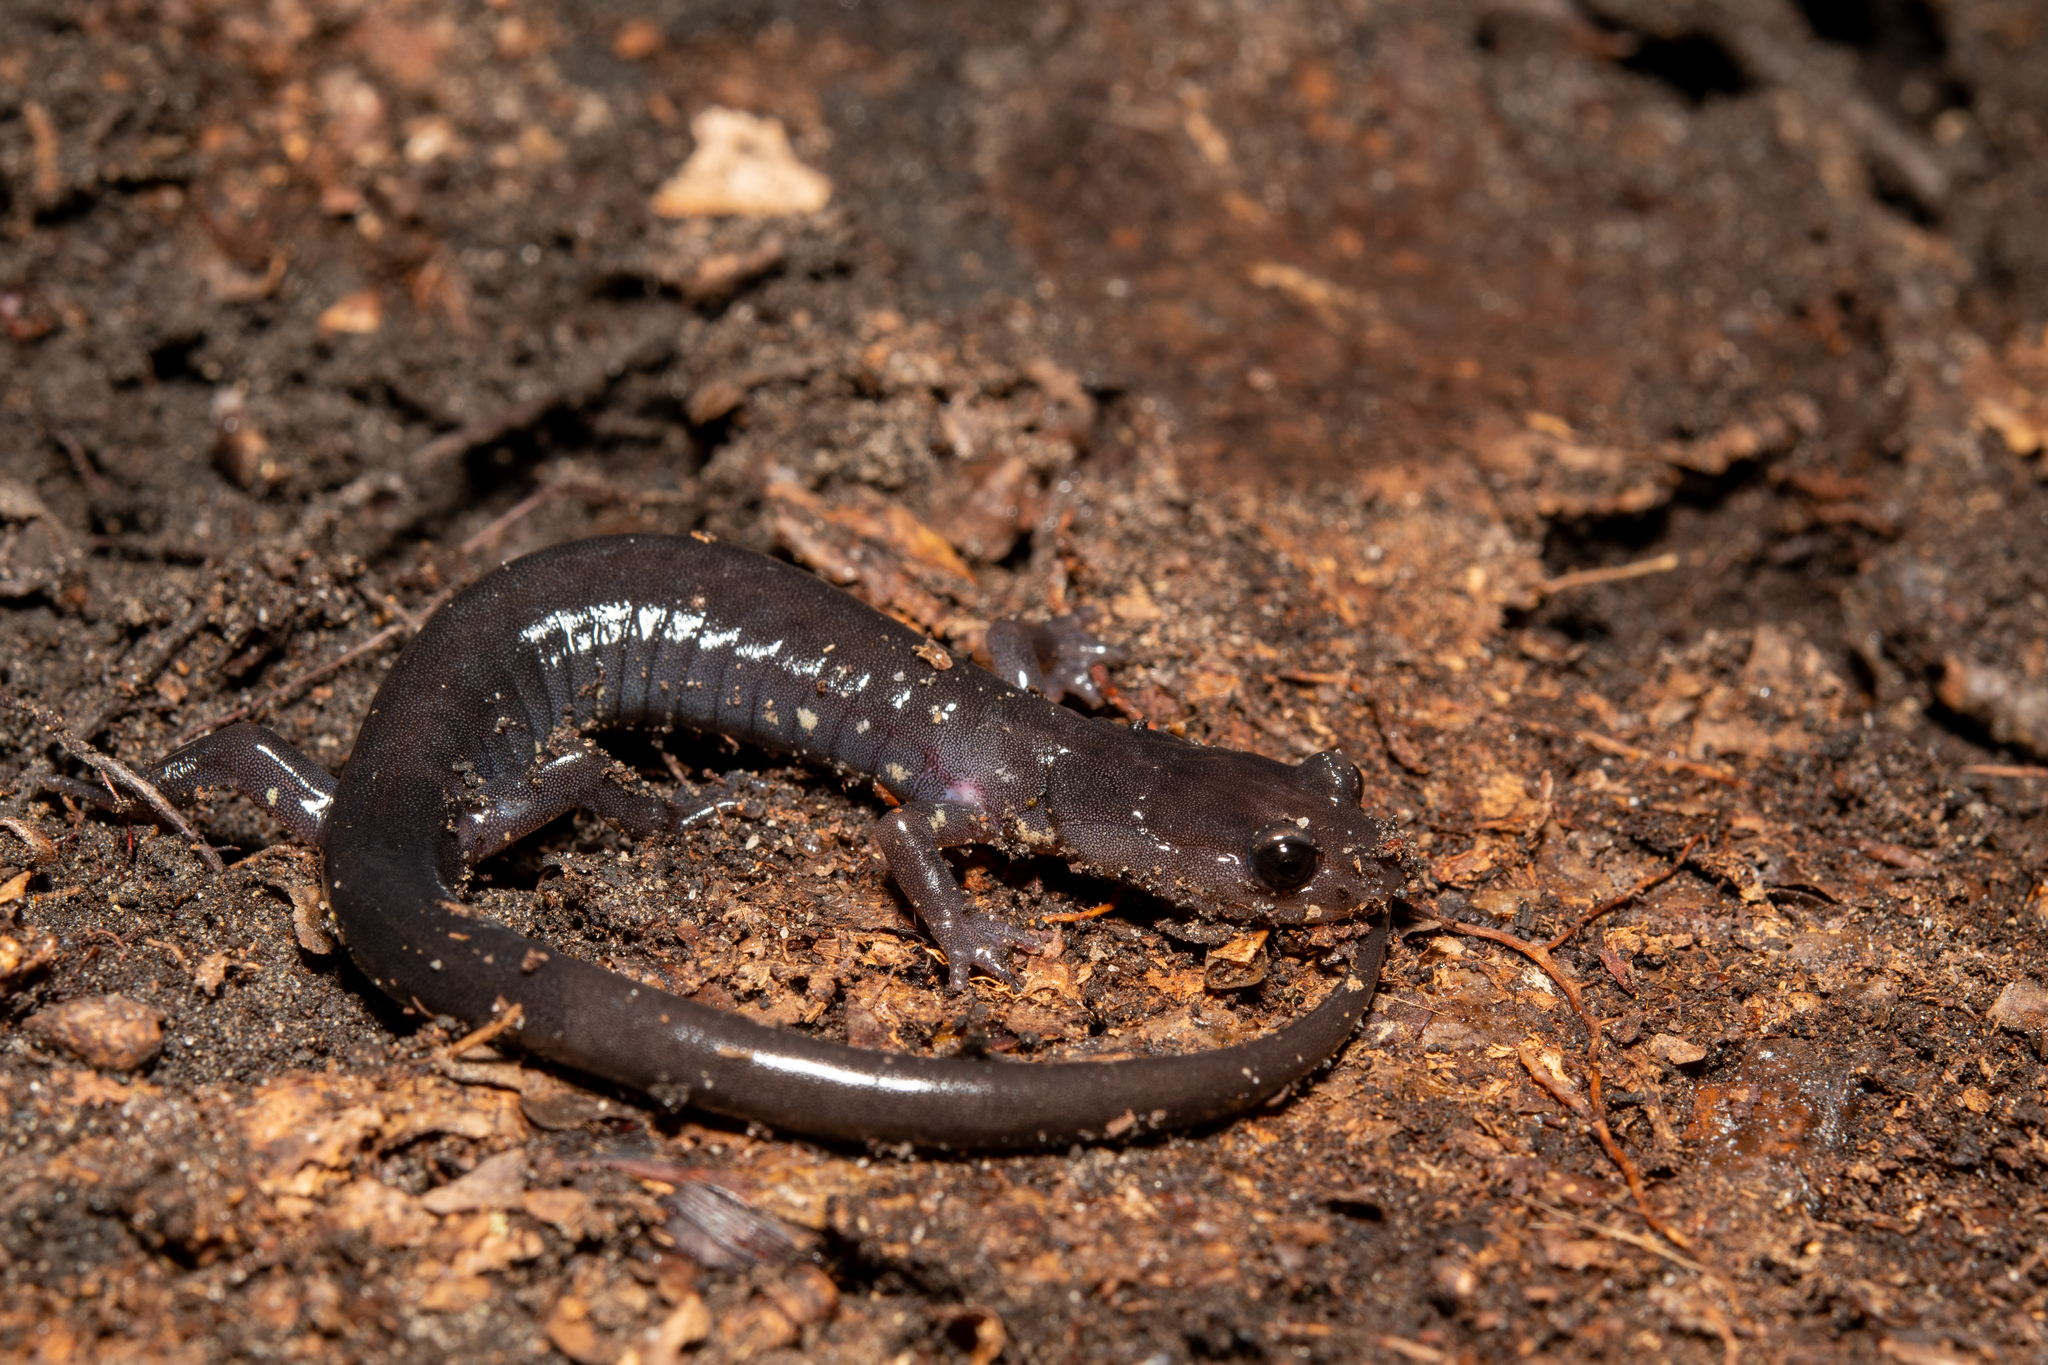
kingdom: Animalia
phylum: Chordata
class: Amphibia
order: Caudata
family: Plethodontidae
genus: Plethodon
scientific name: Plethodon wehrlei
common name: Wehrle's salamander
